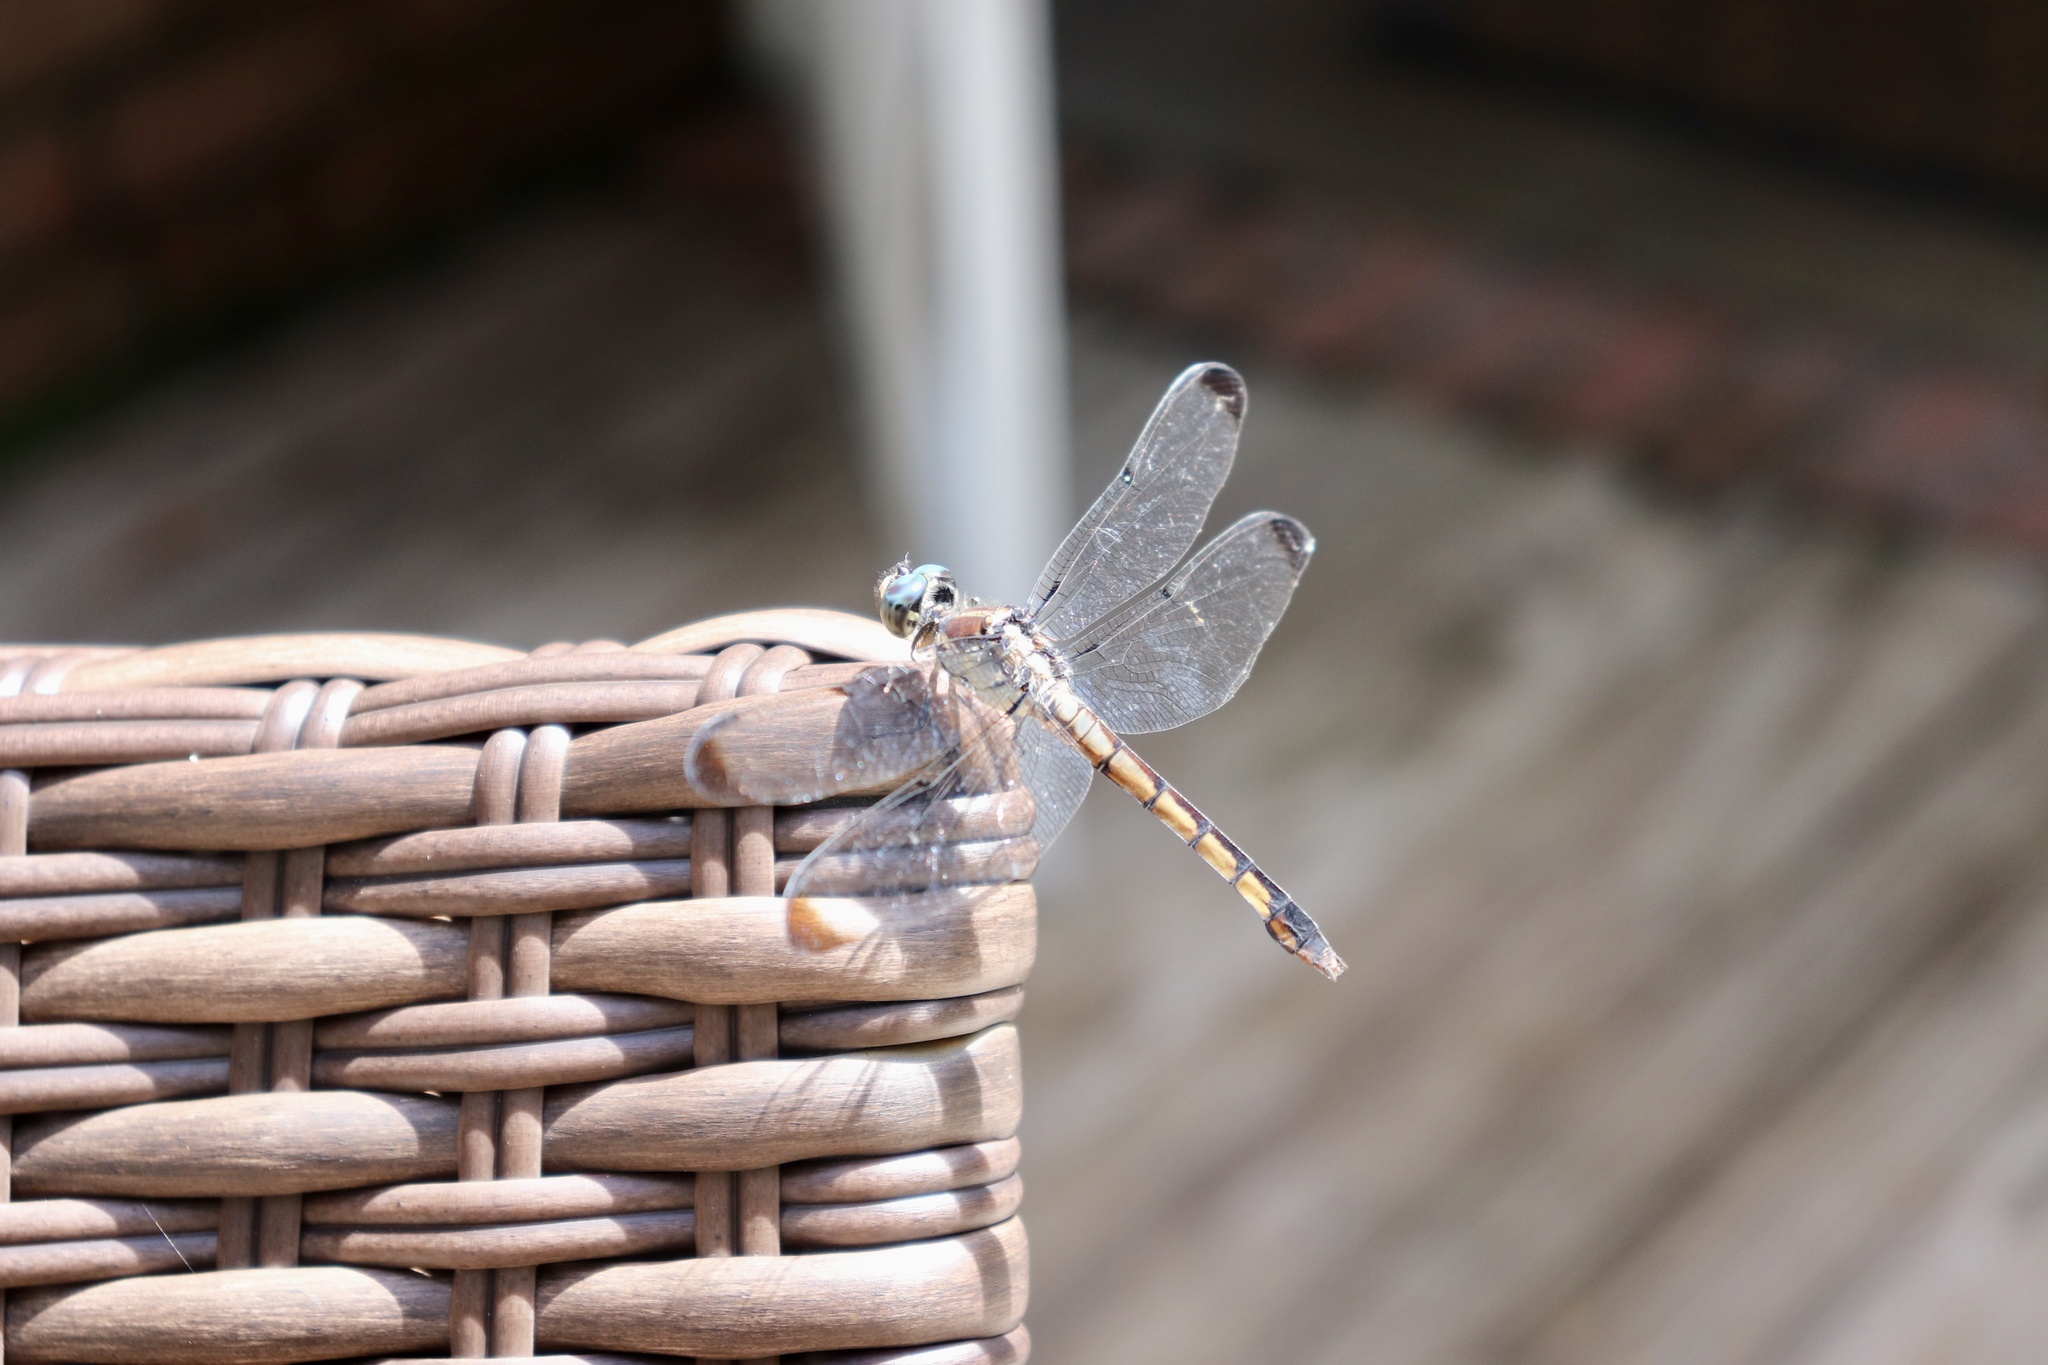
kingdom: Animalia
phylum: Arthropoda
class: Insecta
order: Odonata
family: Libellulidae
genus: Libellula
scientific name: Libellula vibrans
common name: Great blue skimmer
